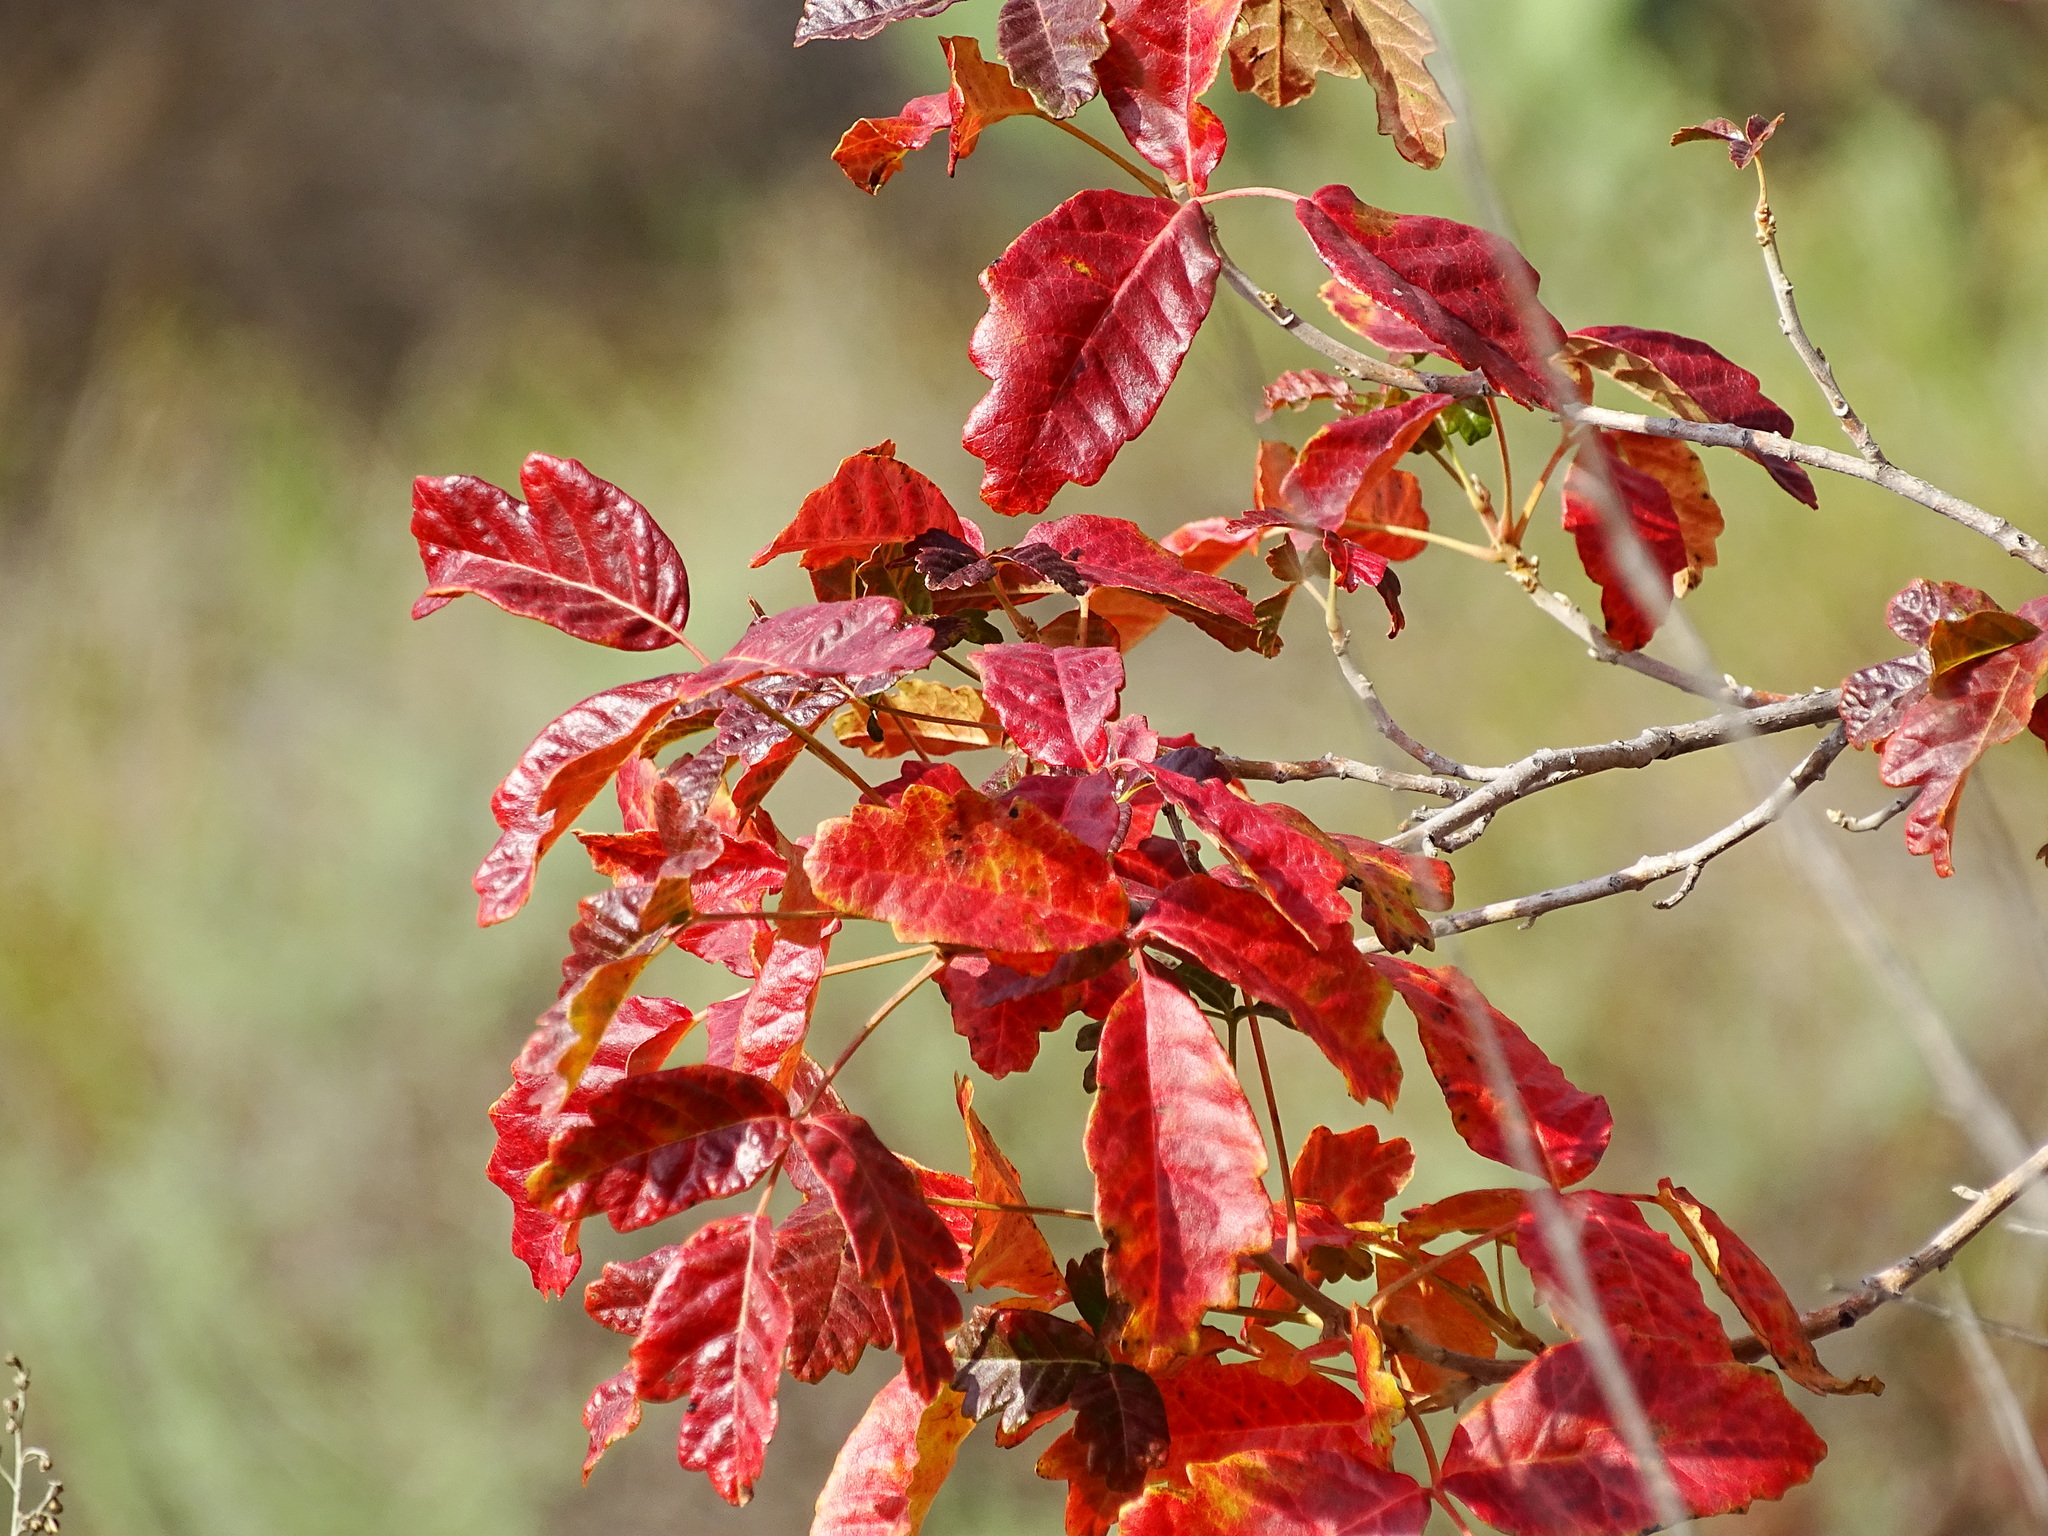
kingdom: Plantae
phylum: Tracheophyta
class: Magnoliopsida
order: Sapindales
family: Anacardiaceae
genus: Toxicodendron
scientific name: Toxicodendron diversilobum
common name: Pacific poison-oak
